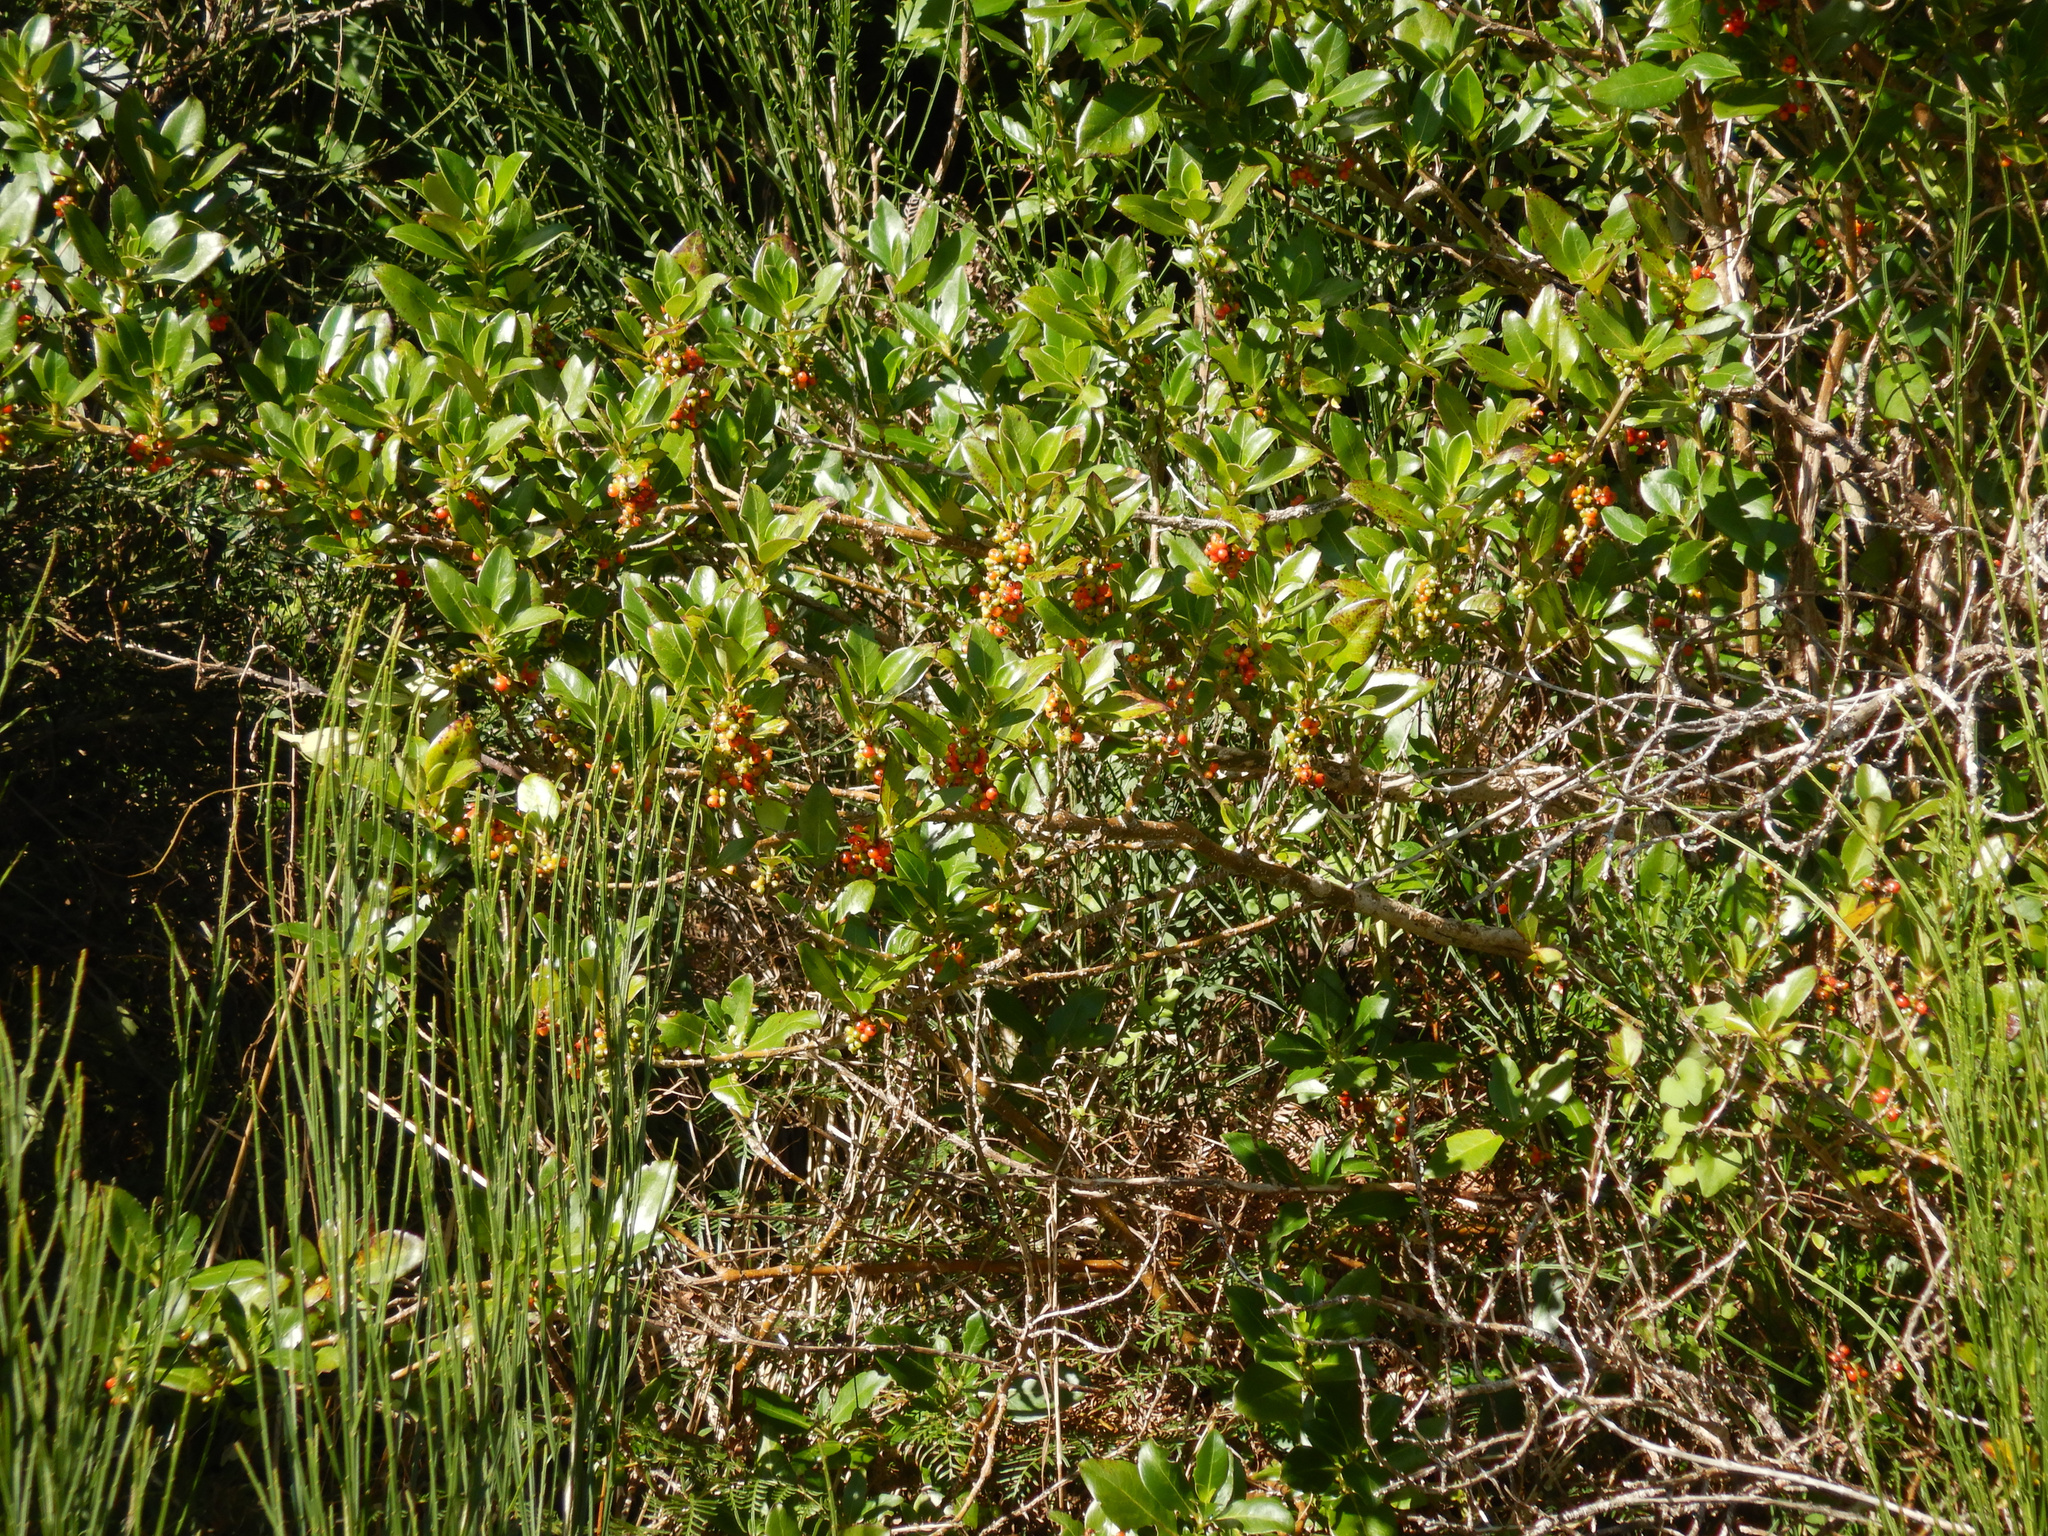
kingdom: Plantae
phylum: Tracheophyta
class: Magnoliopsida
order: Gentianales
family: Rubiaceae
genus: Coprosma
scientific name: Coprosma robusta
